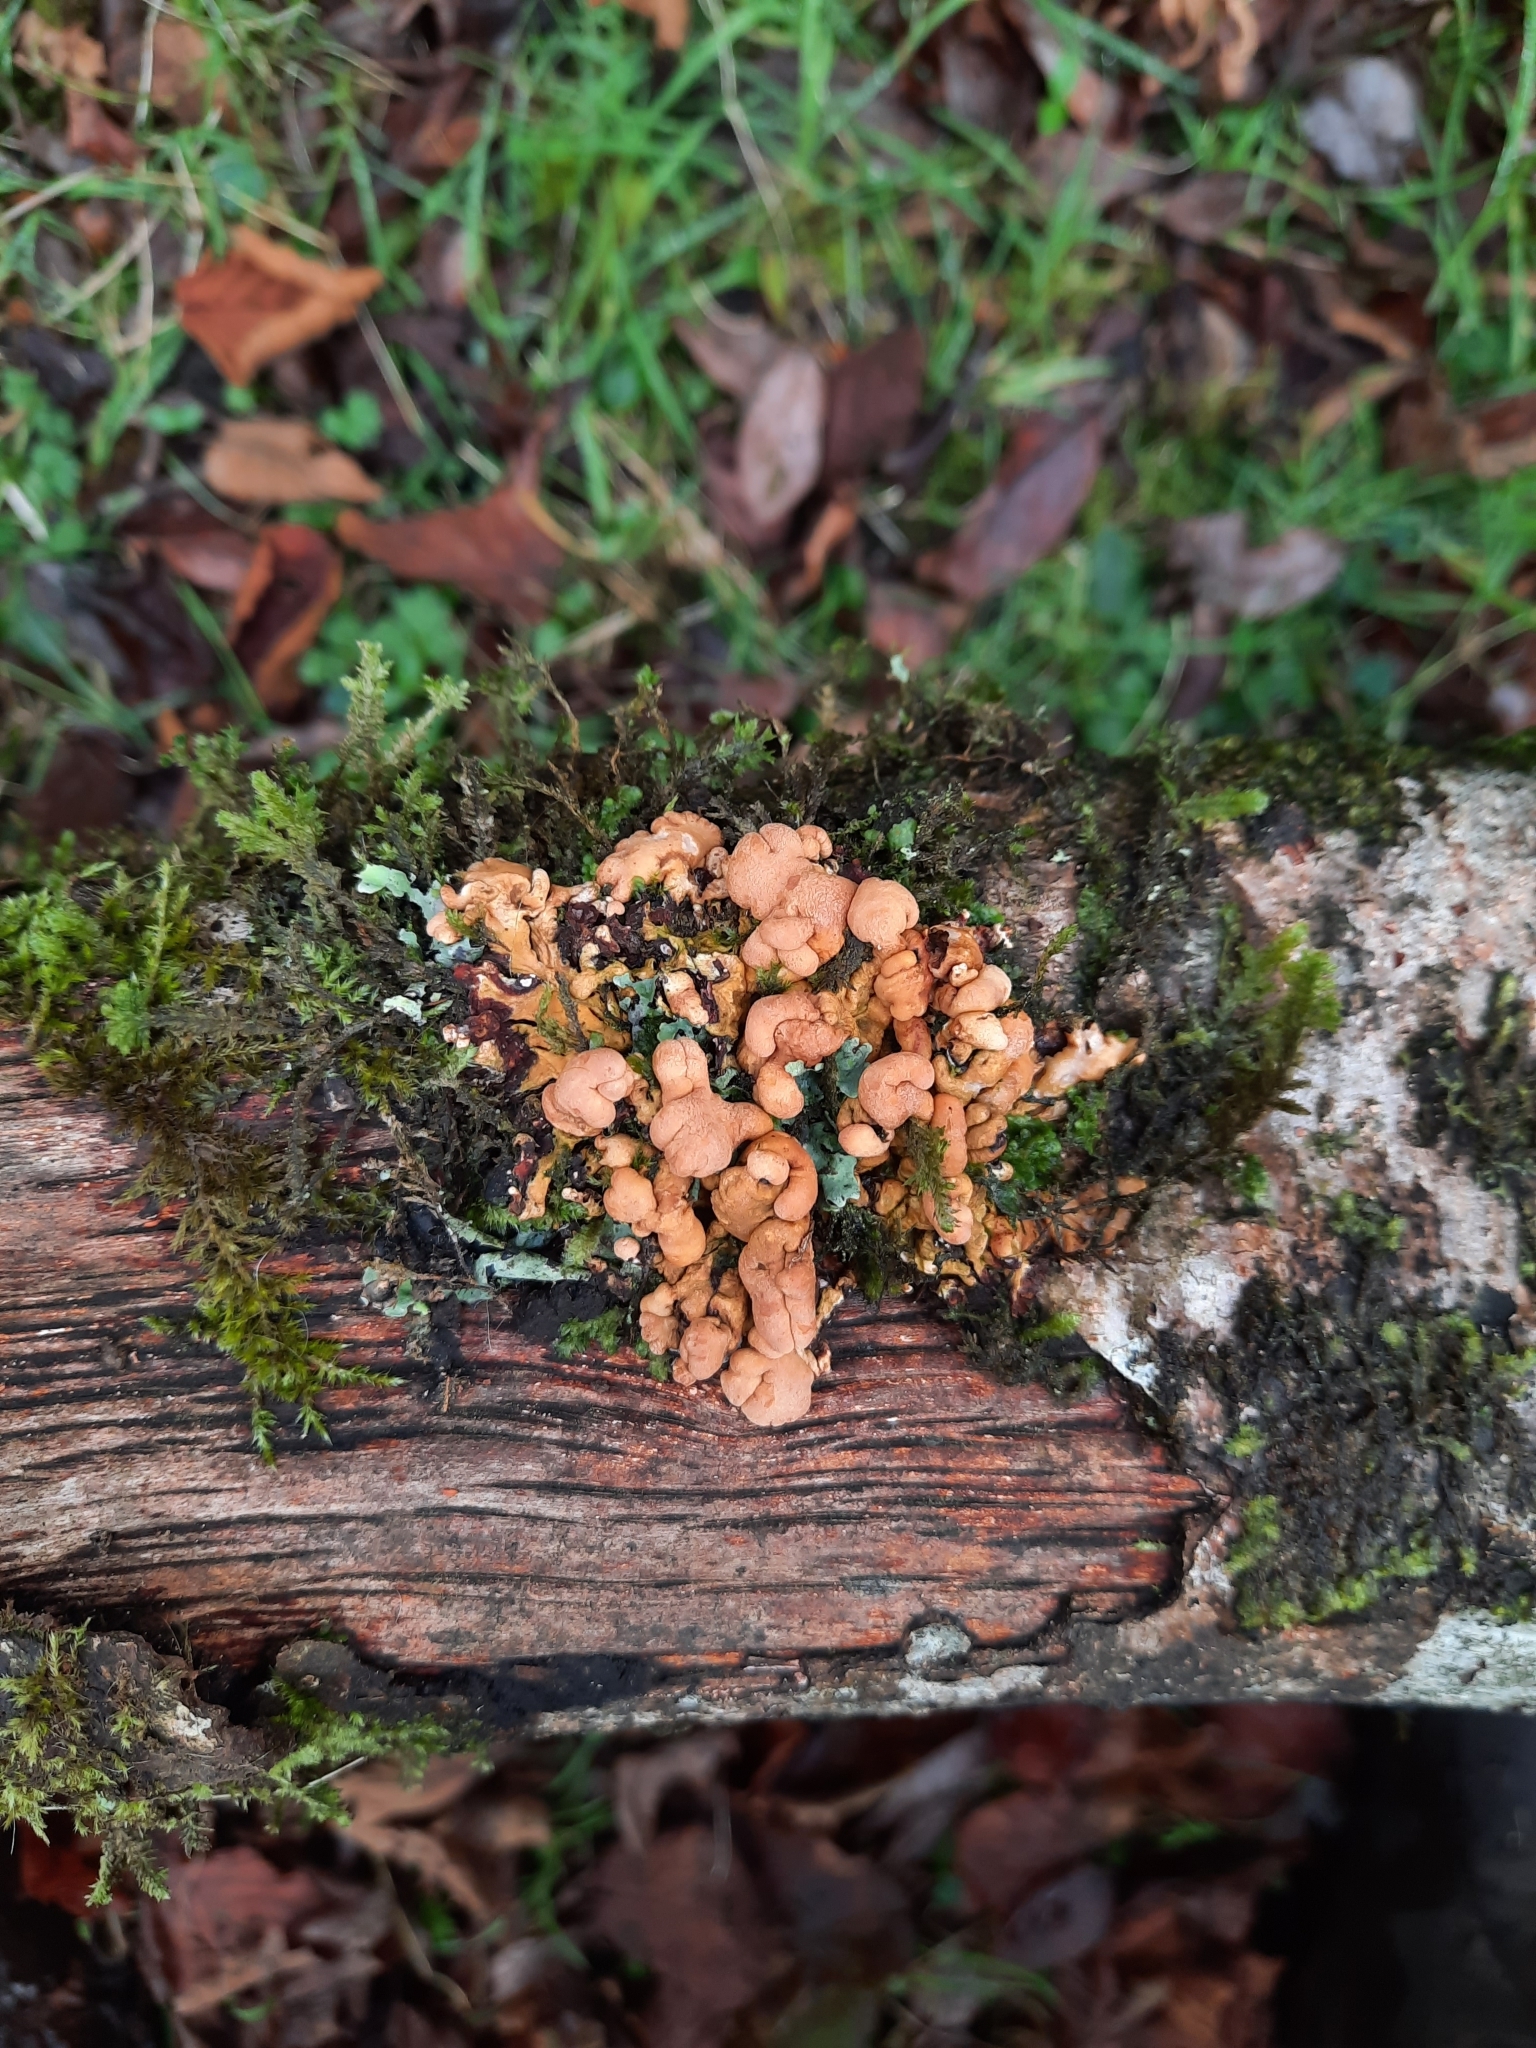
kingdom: Fungi
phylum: Ascomycota
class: Sordariomycetes
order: Hypocreales
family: Hypocreaceae
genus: Hypocreopsis
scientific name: Hypocreopsis rhododendri
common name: Hazel gloves
